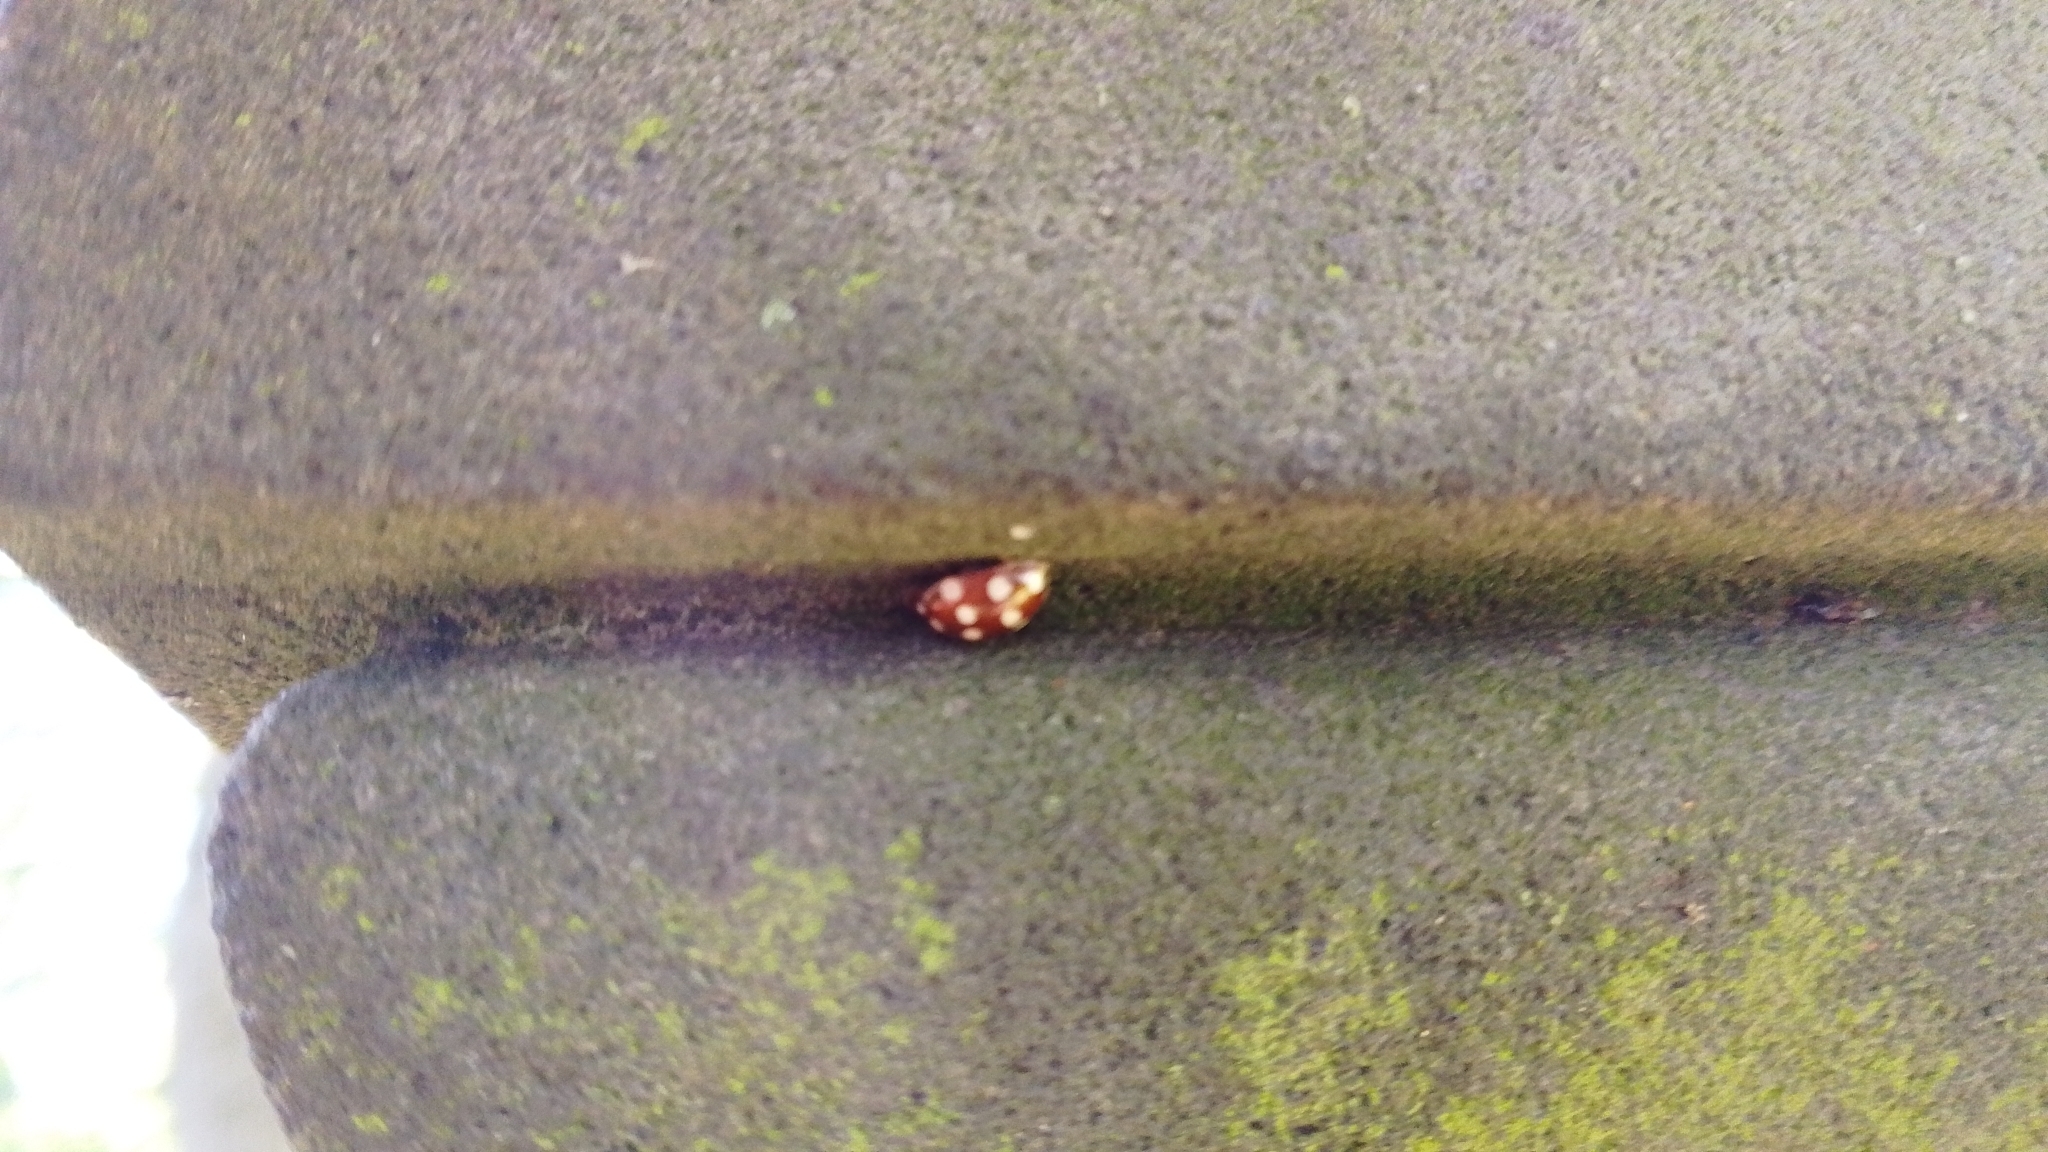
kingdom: Animalia
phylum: Arthropoda
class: Insecta
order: Coleoptera
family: Coccinellidae
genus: Calvia
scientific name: Calvia quatuordecimguttata
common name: Cream-spot ladybird
